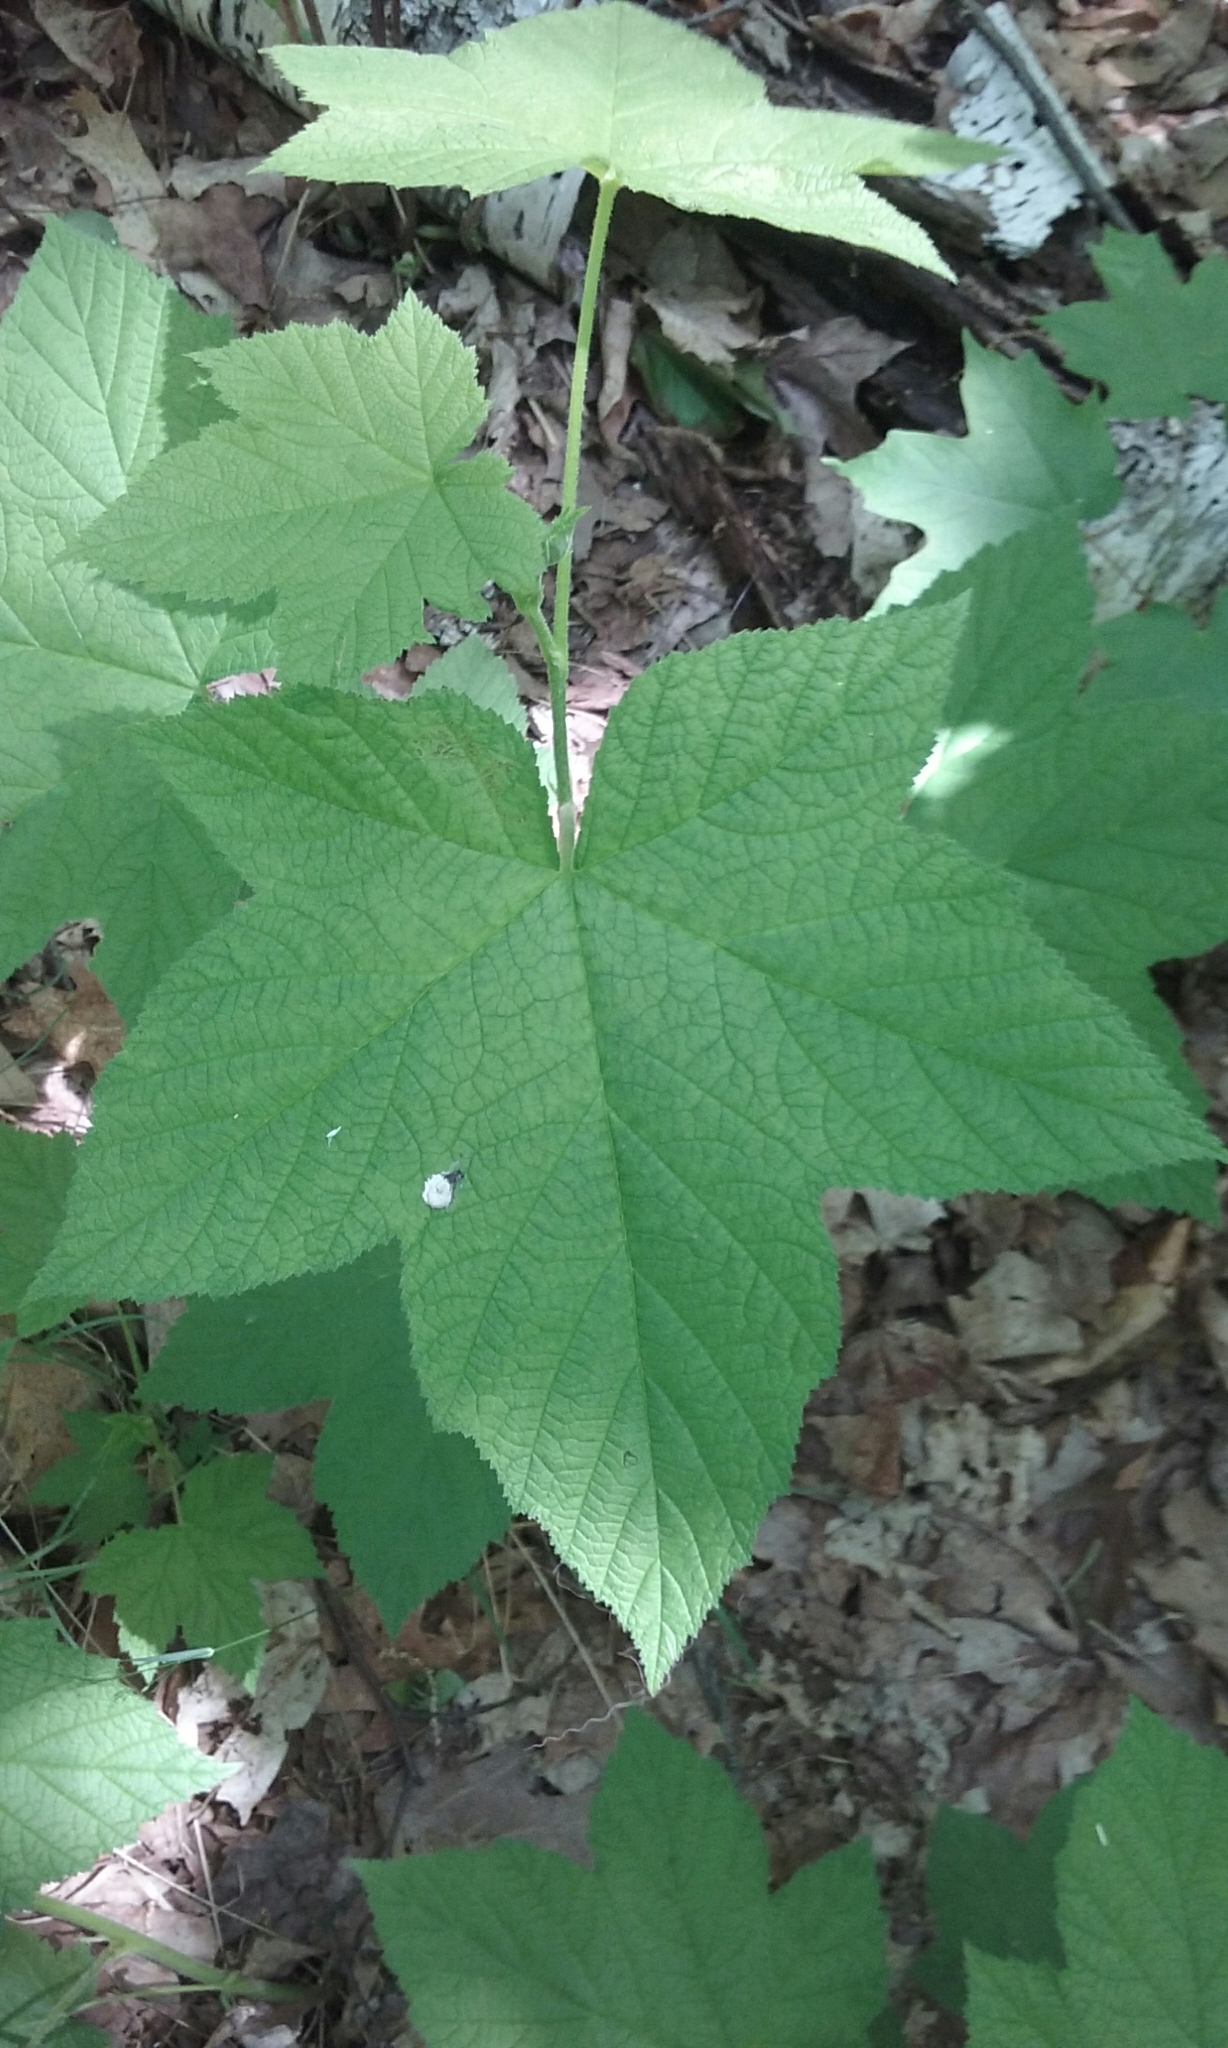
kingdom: Plantae
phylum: Tracheophyta
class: Magnoliopsida
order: Rosales
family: Rosaceae
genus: Rubus
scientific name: Rubus parviflorus
